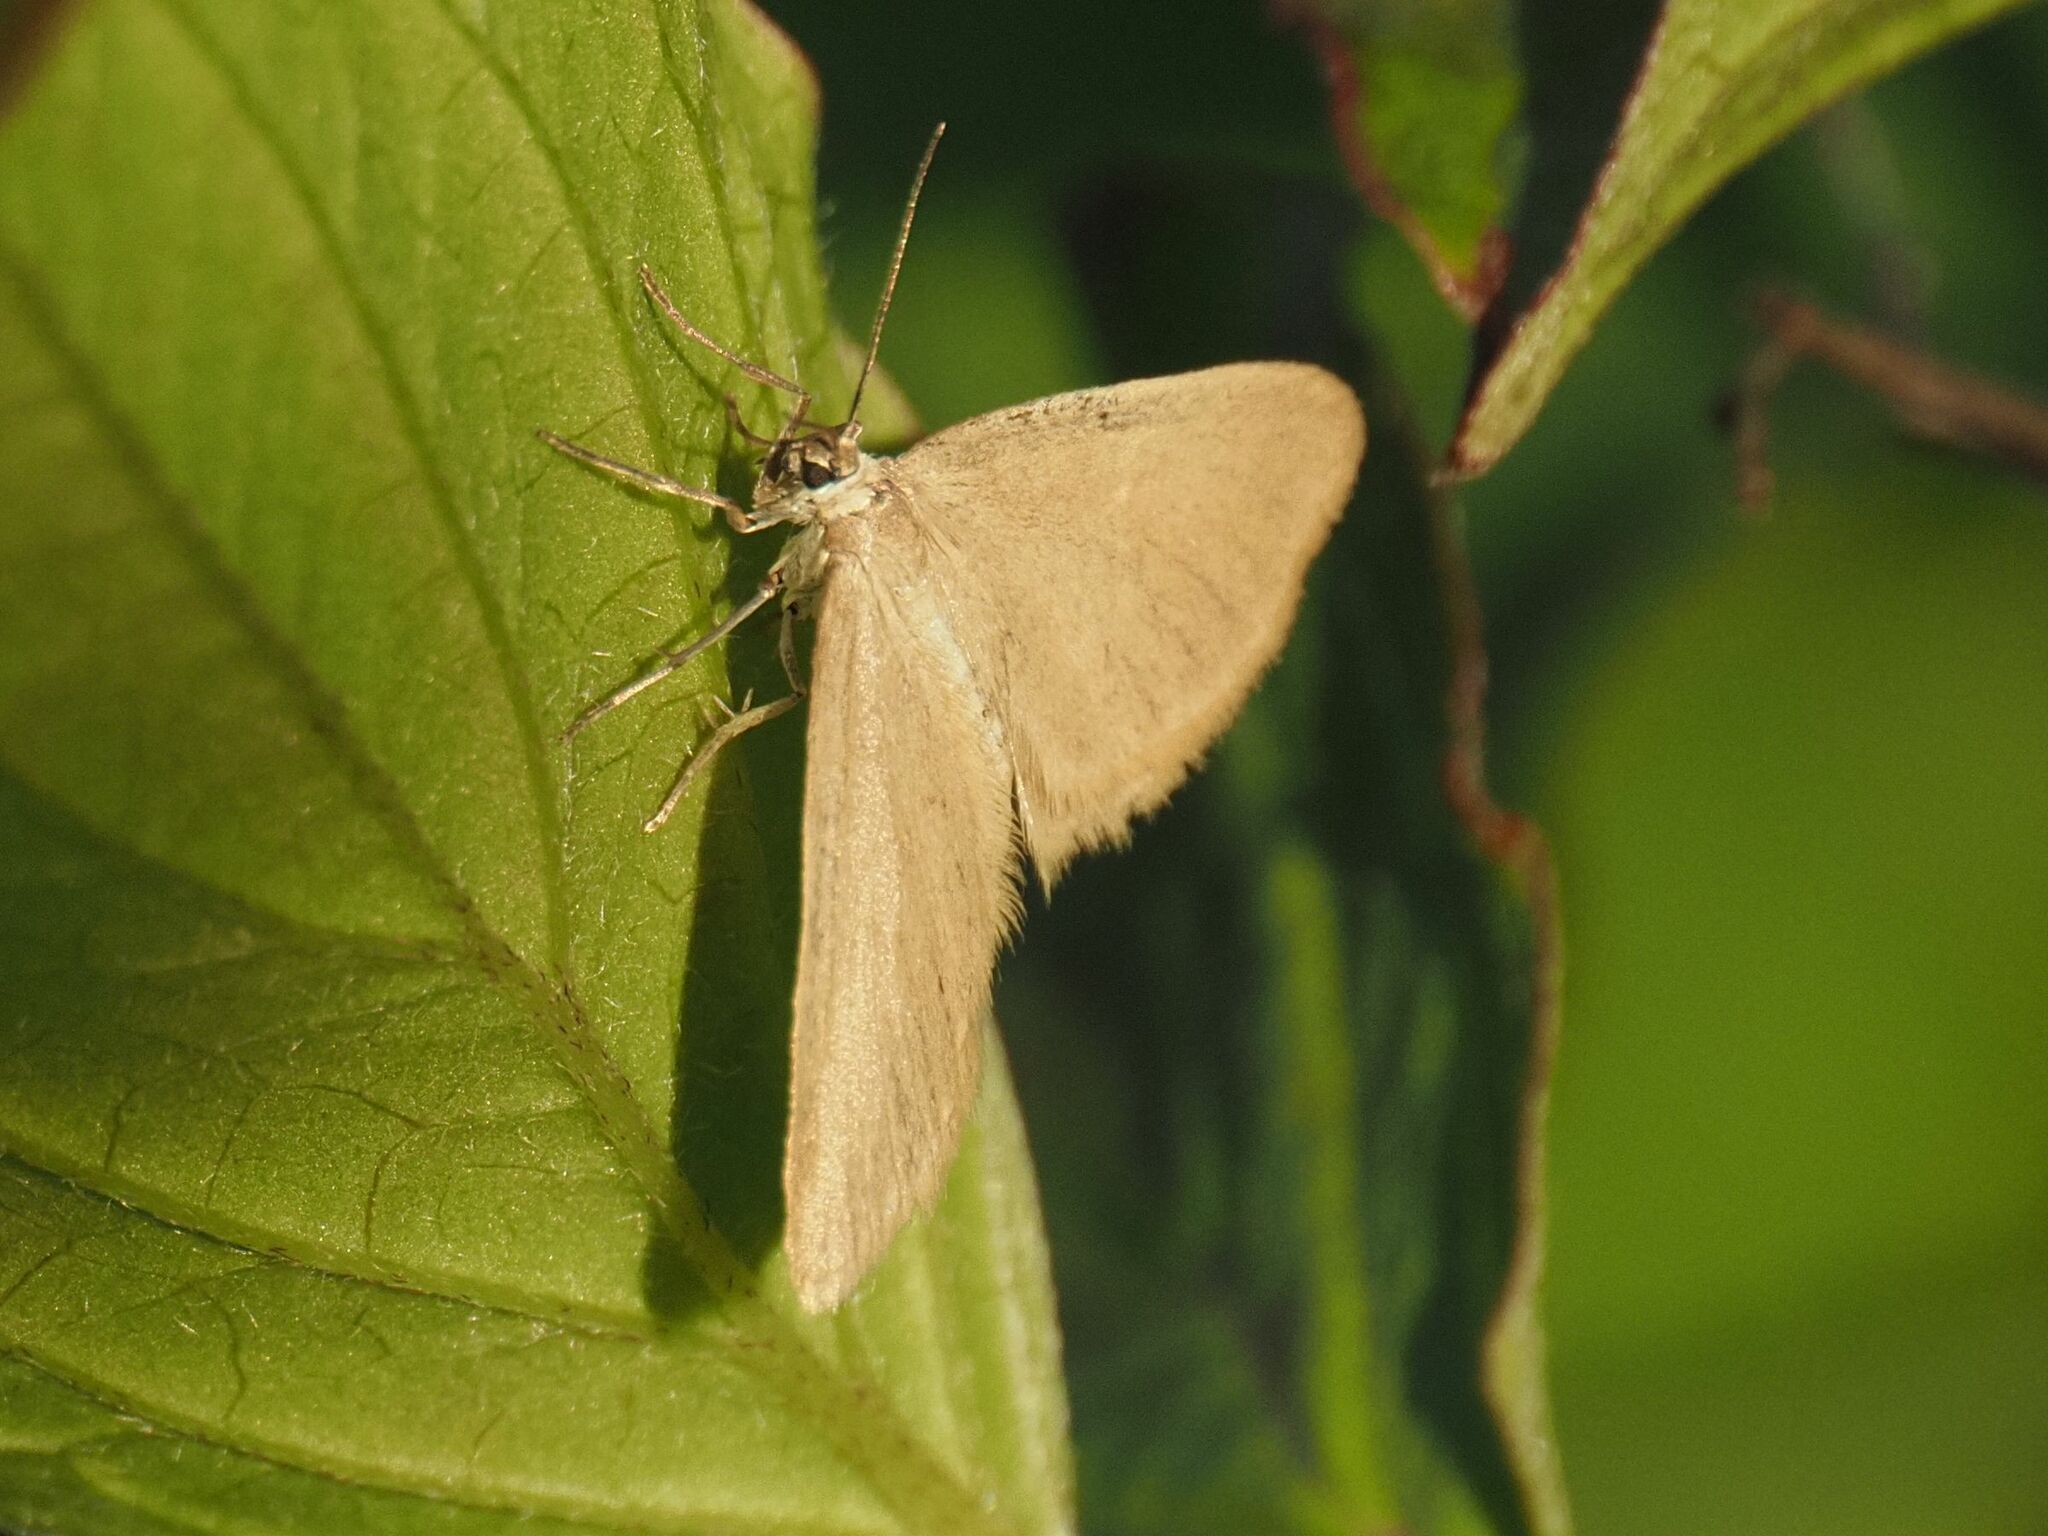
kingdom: Animalia
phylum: Arthropoda
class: Insecta
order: Lepidoptera
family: Geometridae
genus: Minoa
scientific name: Minoa murinata
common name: Drab looper
